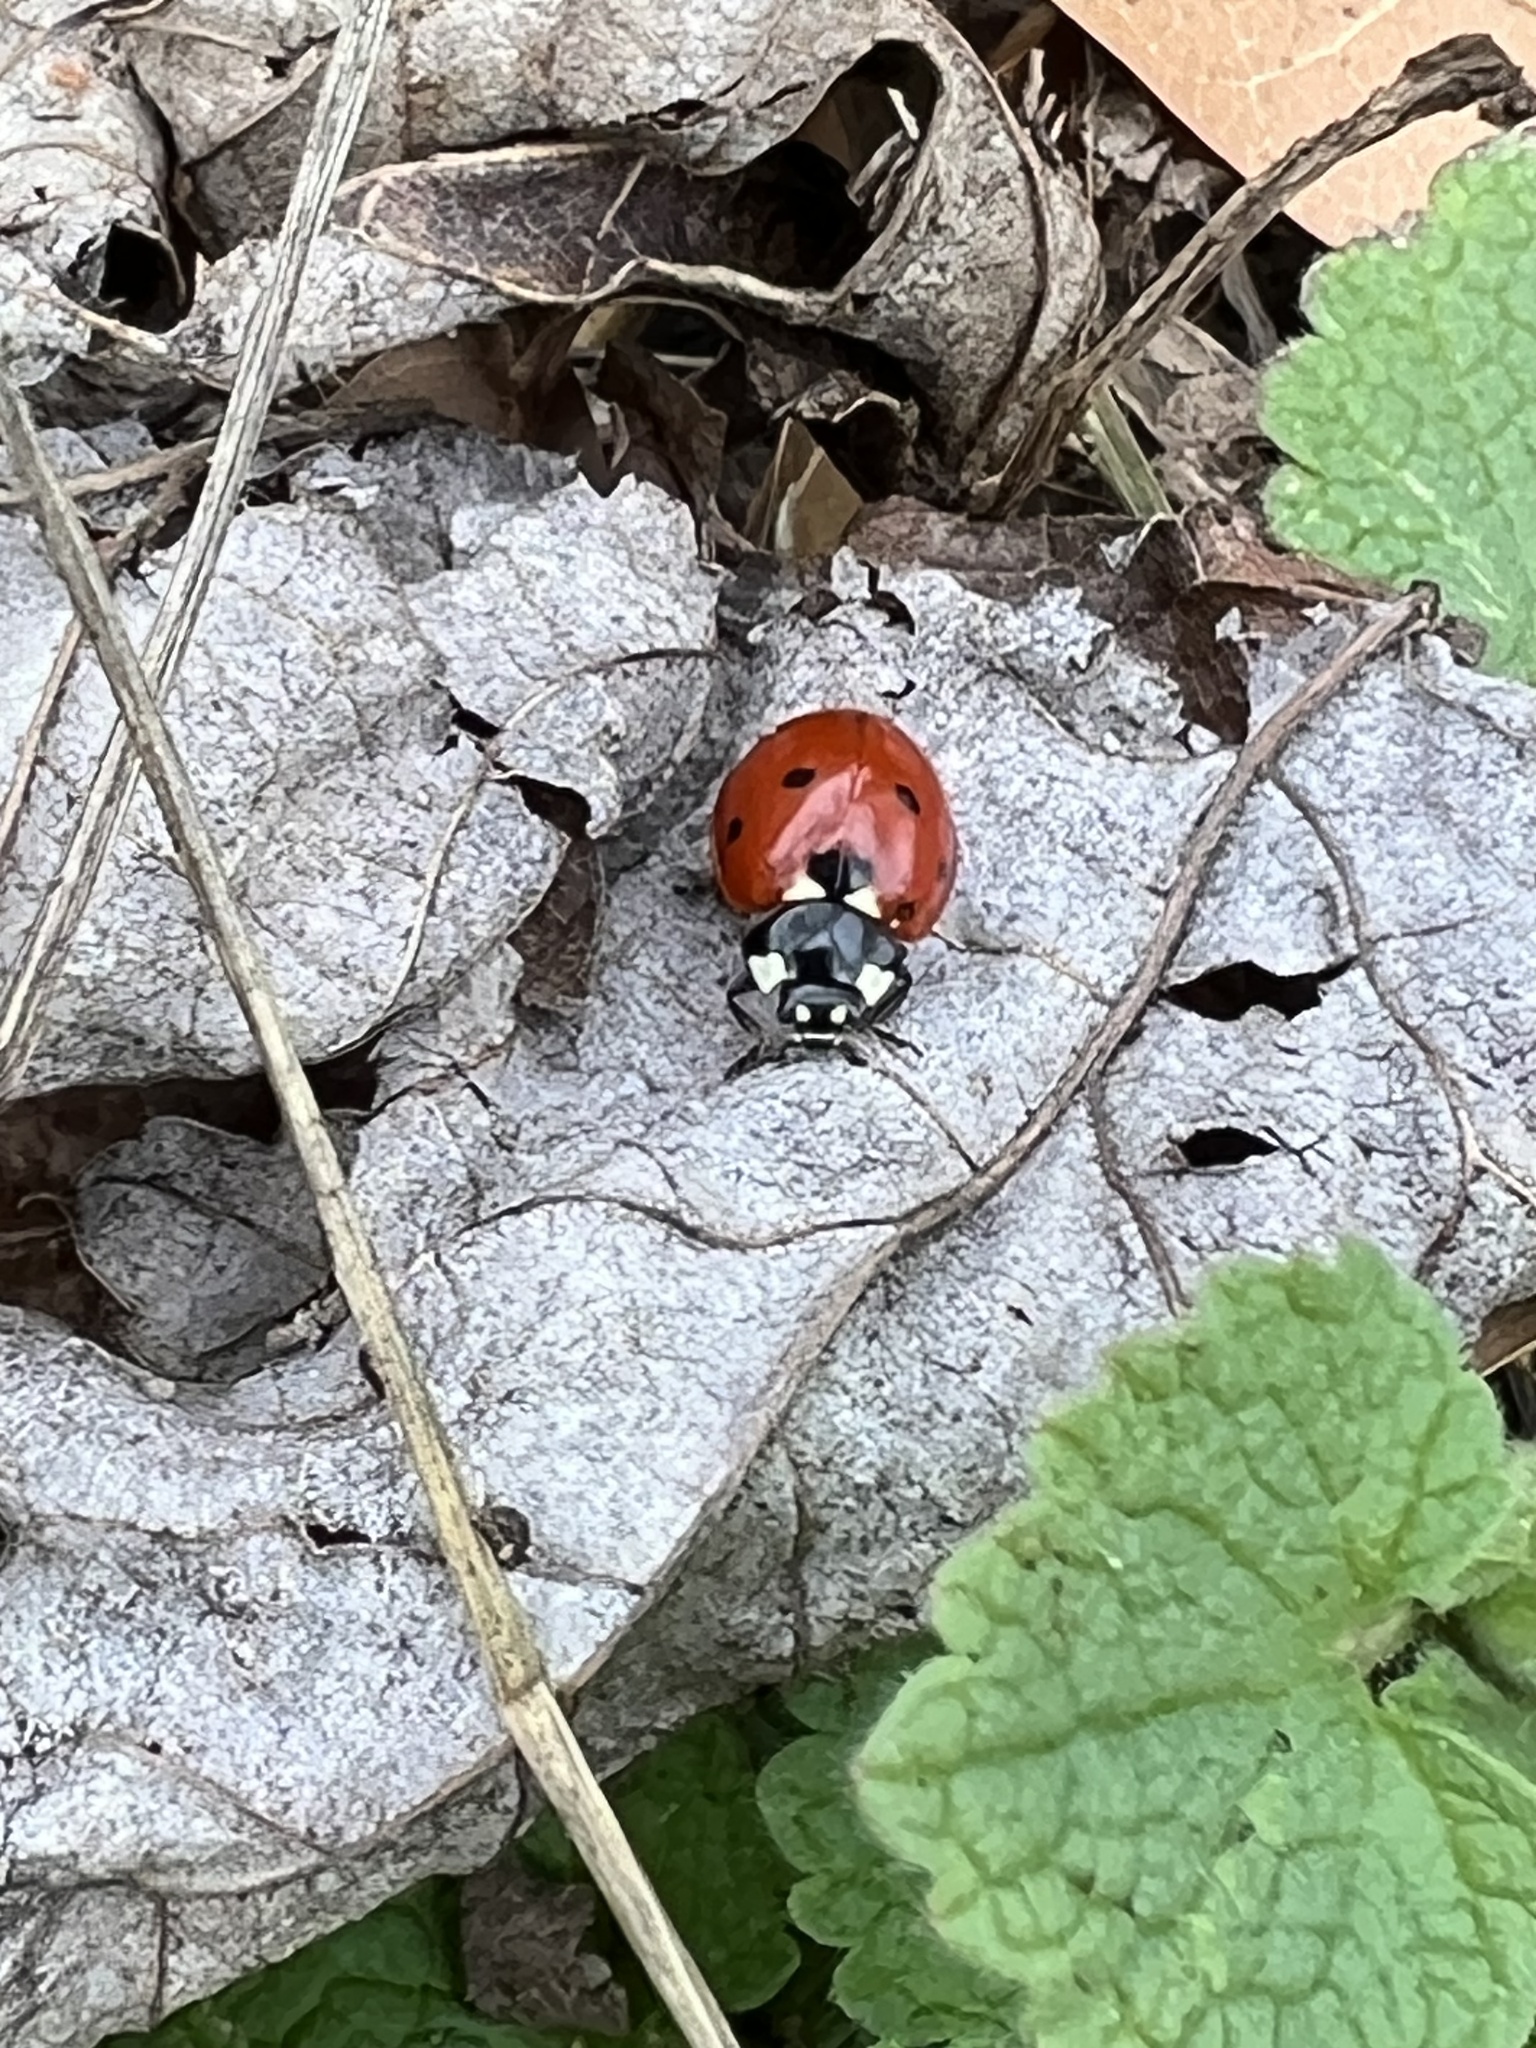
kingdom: Animalia
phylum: Arthropoda
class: Insecta
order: Coleoptera
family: Coccinellidae
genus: Coccinella
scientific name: Coccinella septempunctata
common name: Sevenspotted lady beetle
